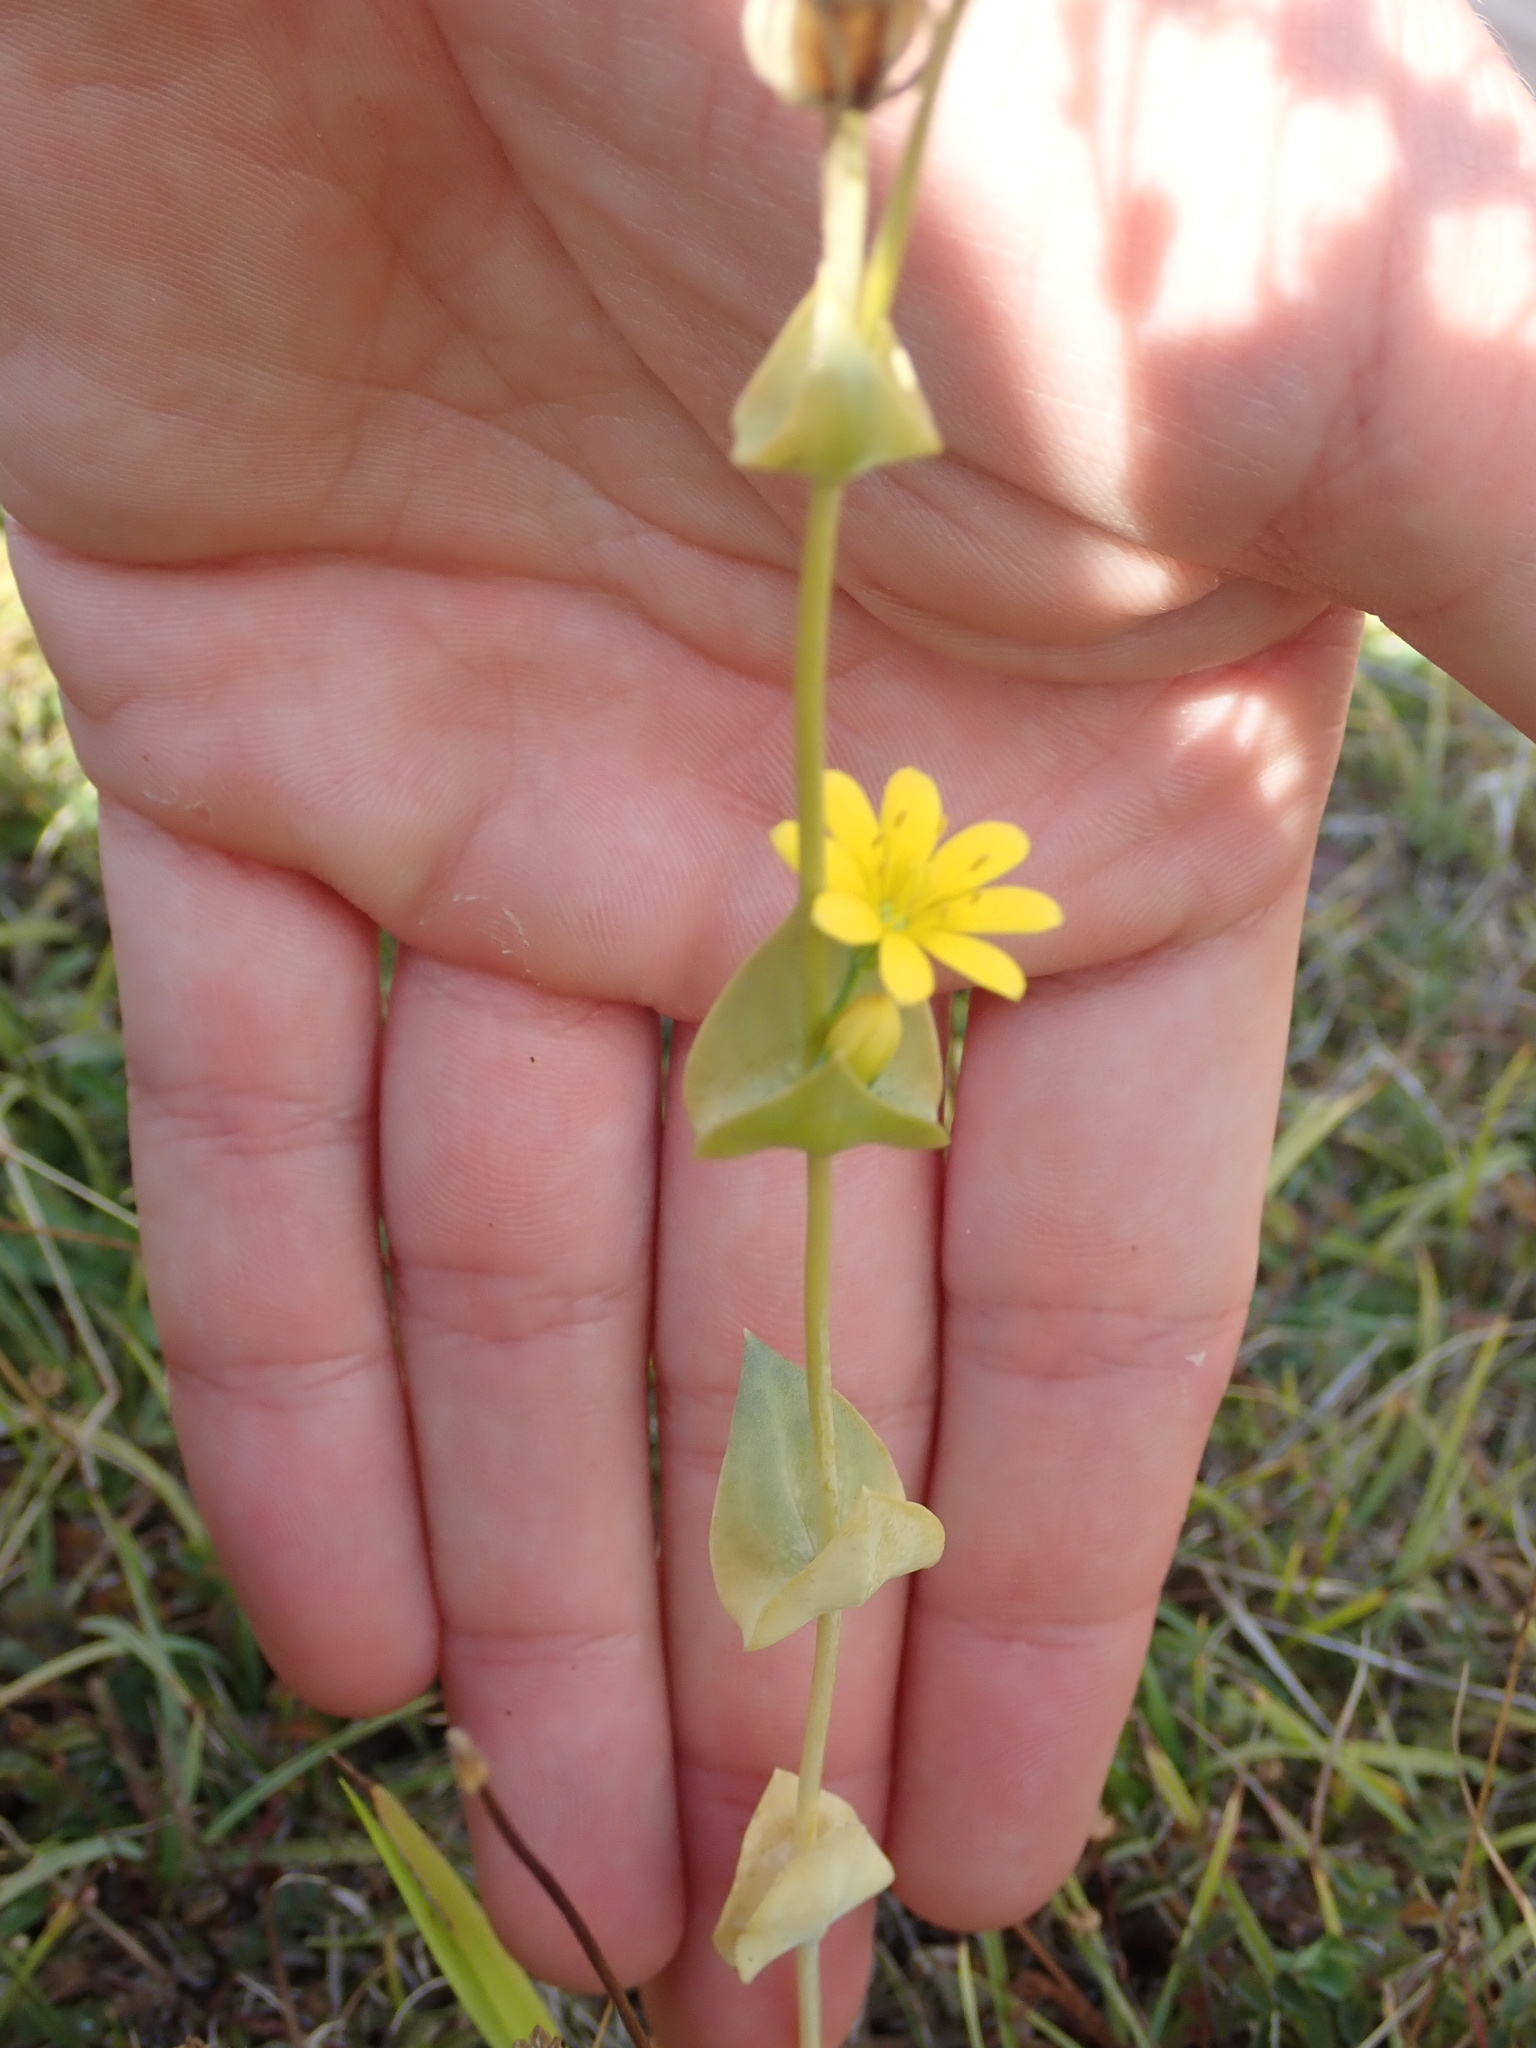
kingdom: Plantae
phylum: Tracheophyta
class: Magnoliopsida
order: Gentianales
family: Gentianaceae
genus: Blackstonia
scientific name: Blackstonia perfoliata
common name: Yellow-wort
